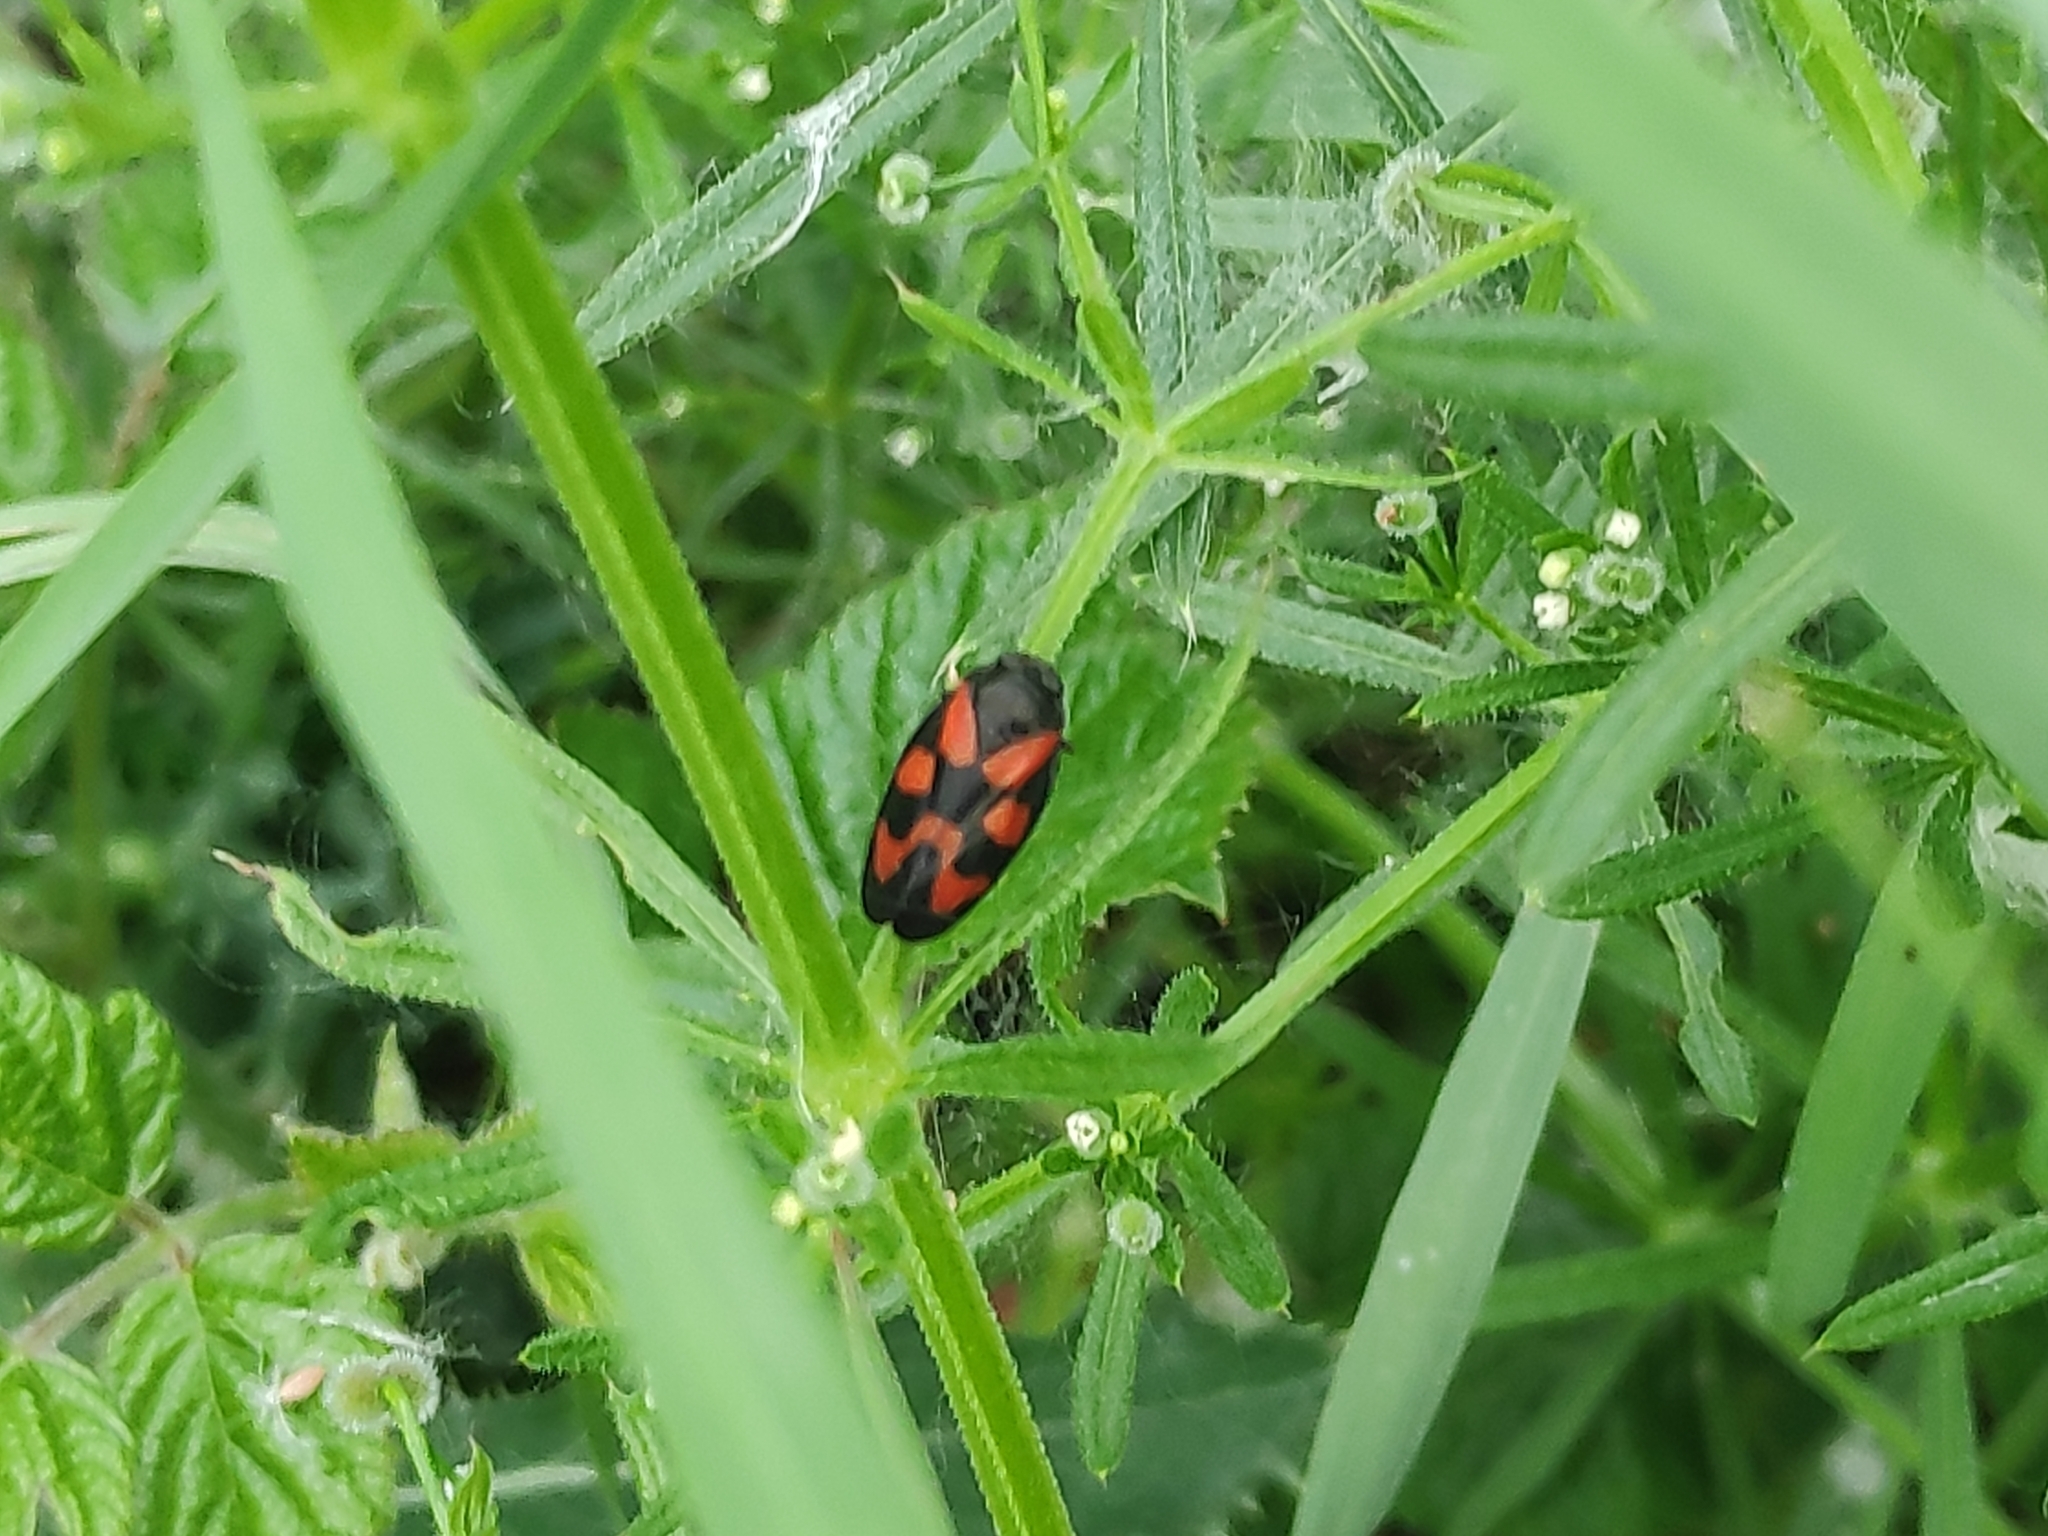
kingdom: Animalia
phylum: Arthropoda
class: Insecta
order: Hemiptera
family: Cercopidae
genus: Cercopis
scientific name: Cercopis vulnerata
